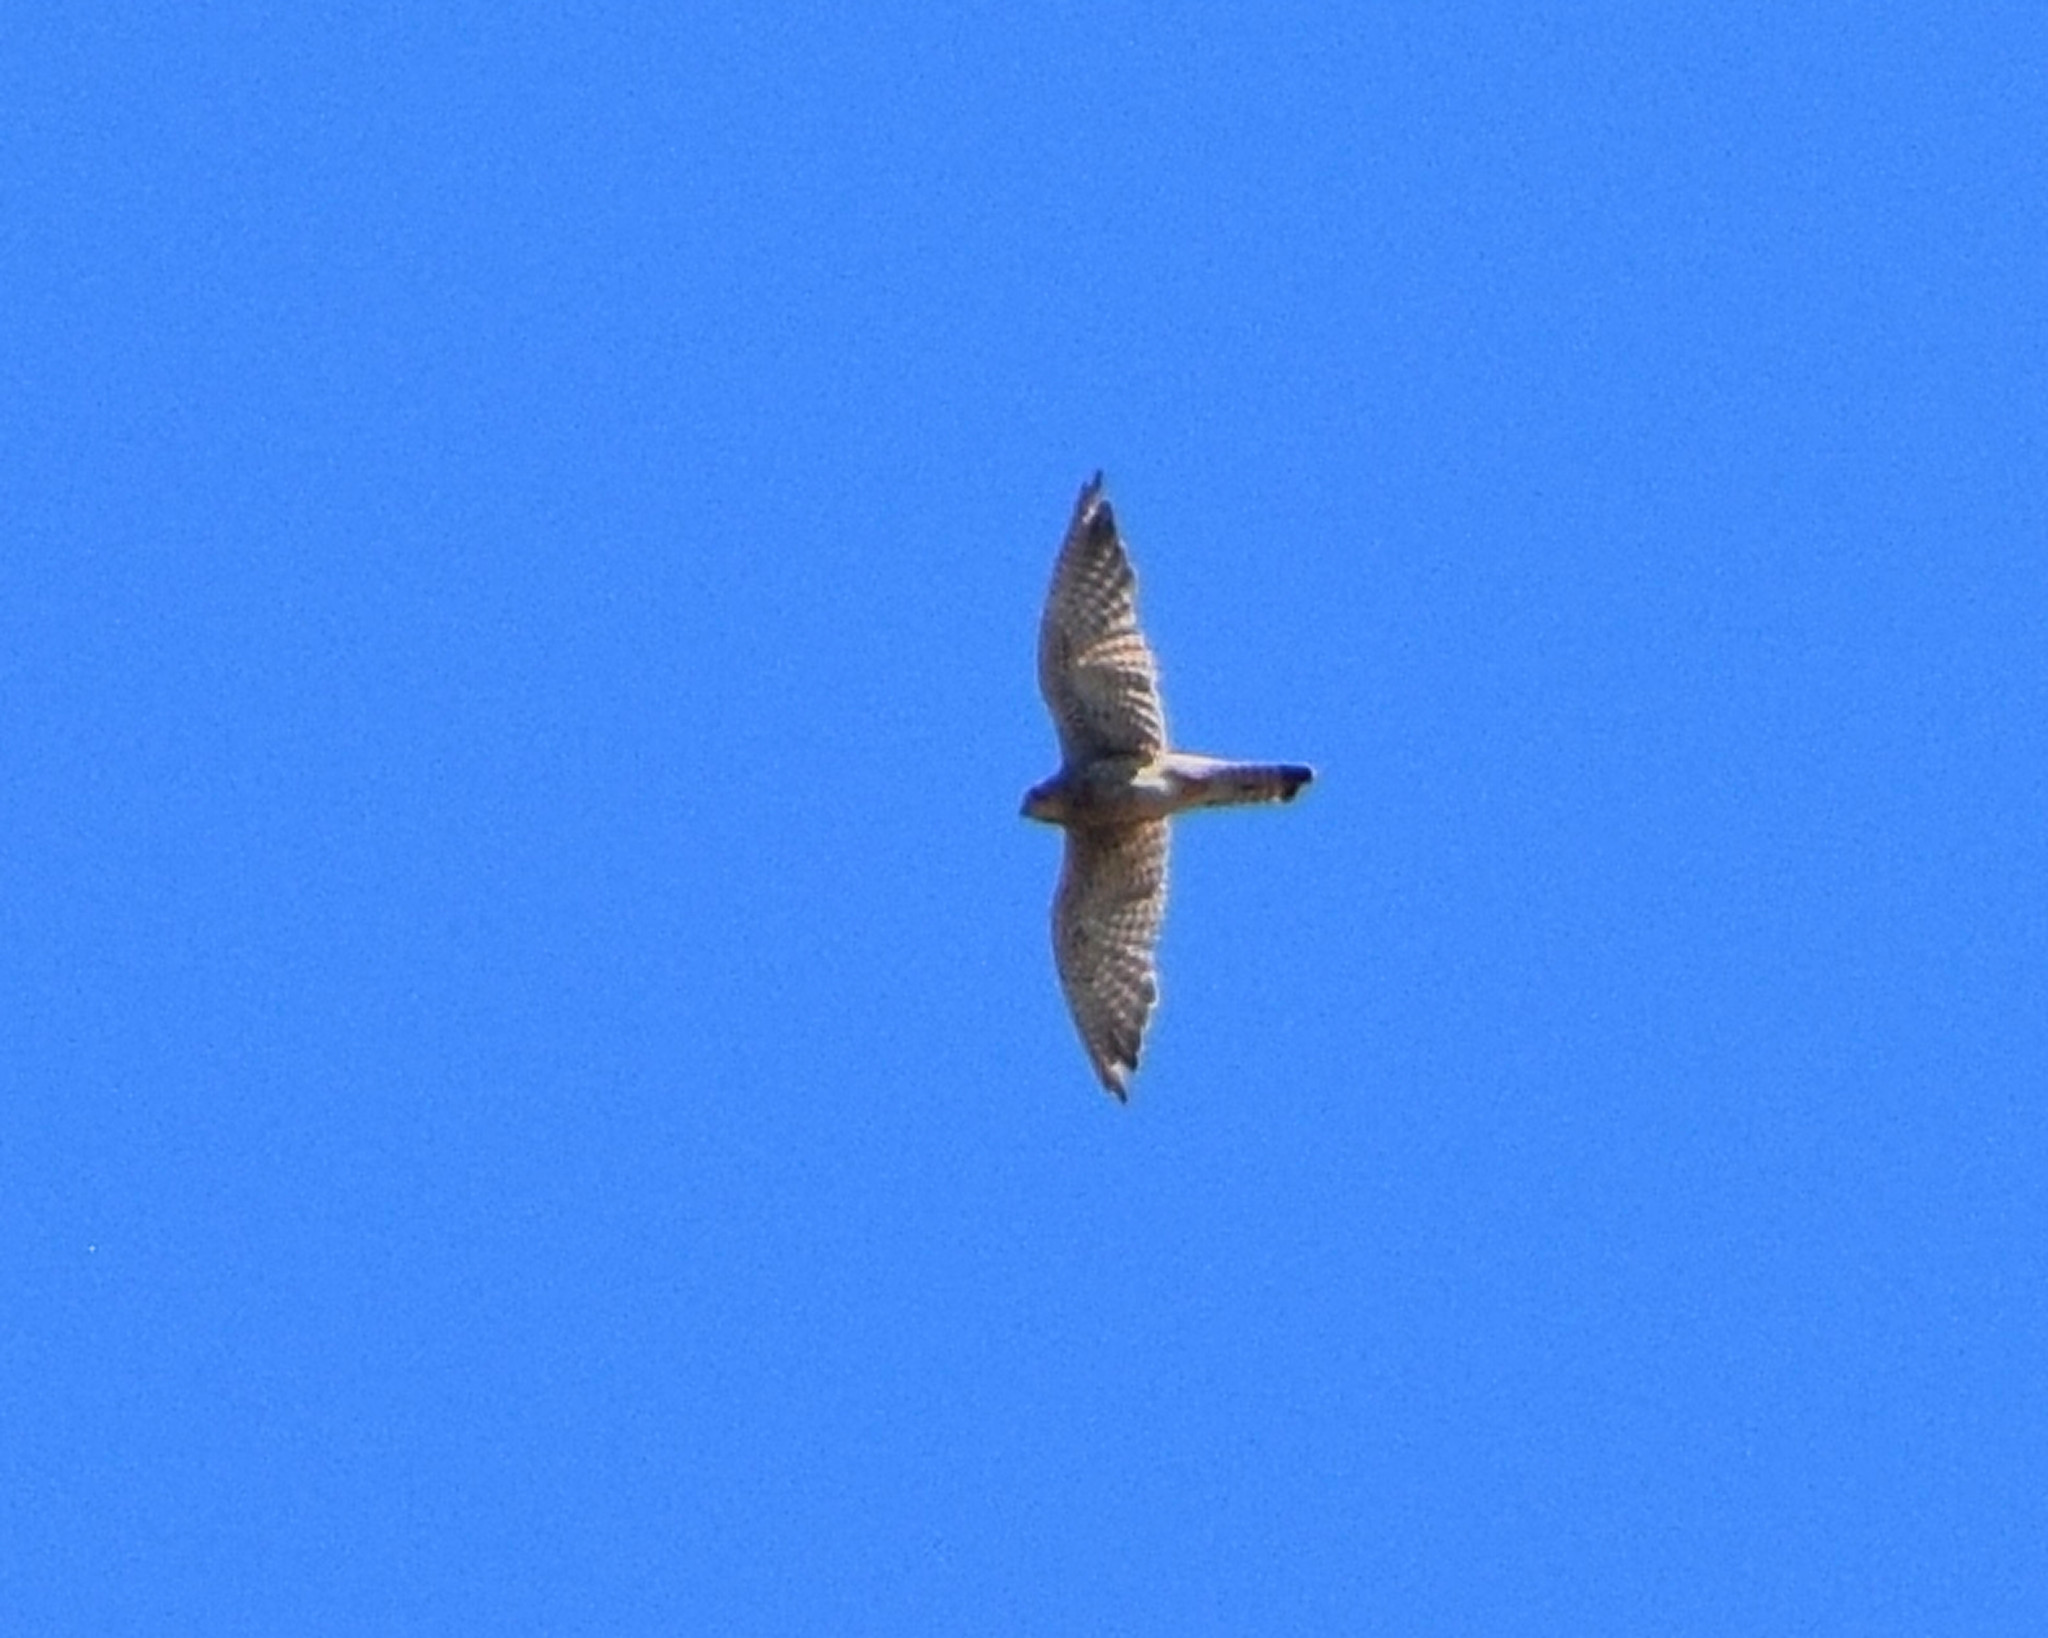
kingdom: Animalia
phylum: Chordata
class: Aves
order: Falconiformes
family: Falconidae
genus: Falco
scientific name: Falco tinnunculus
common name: Common kestrel
